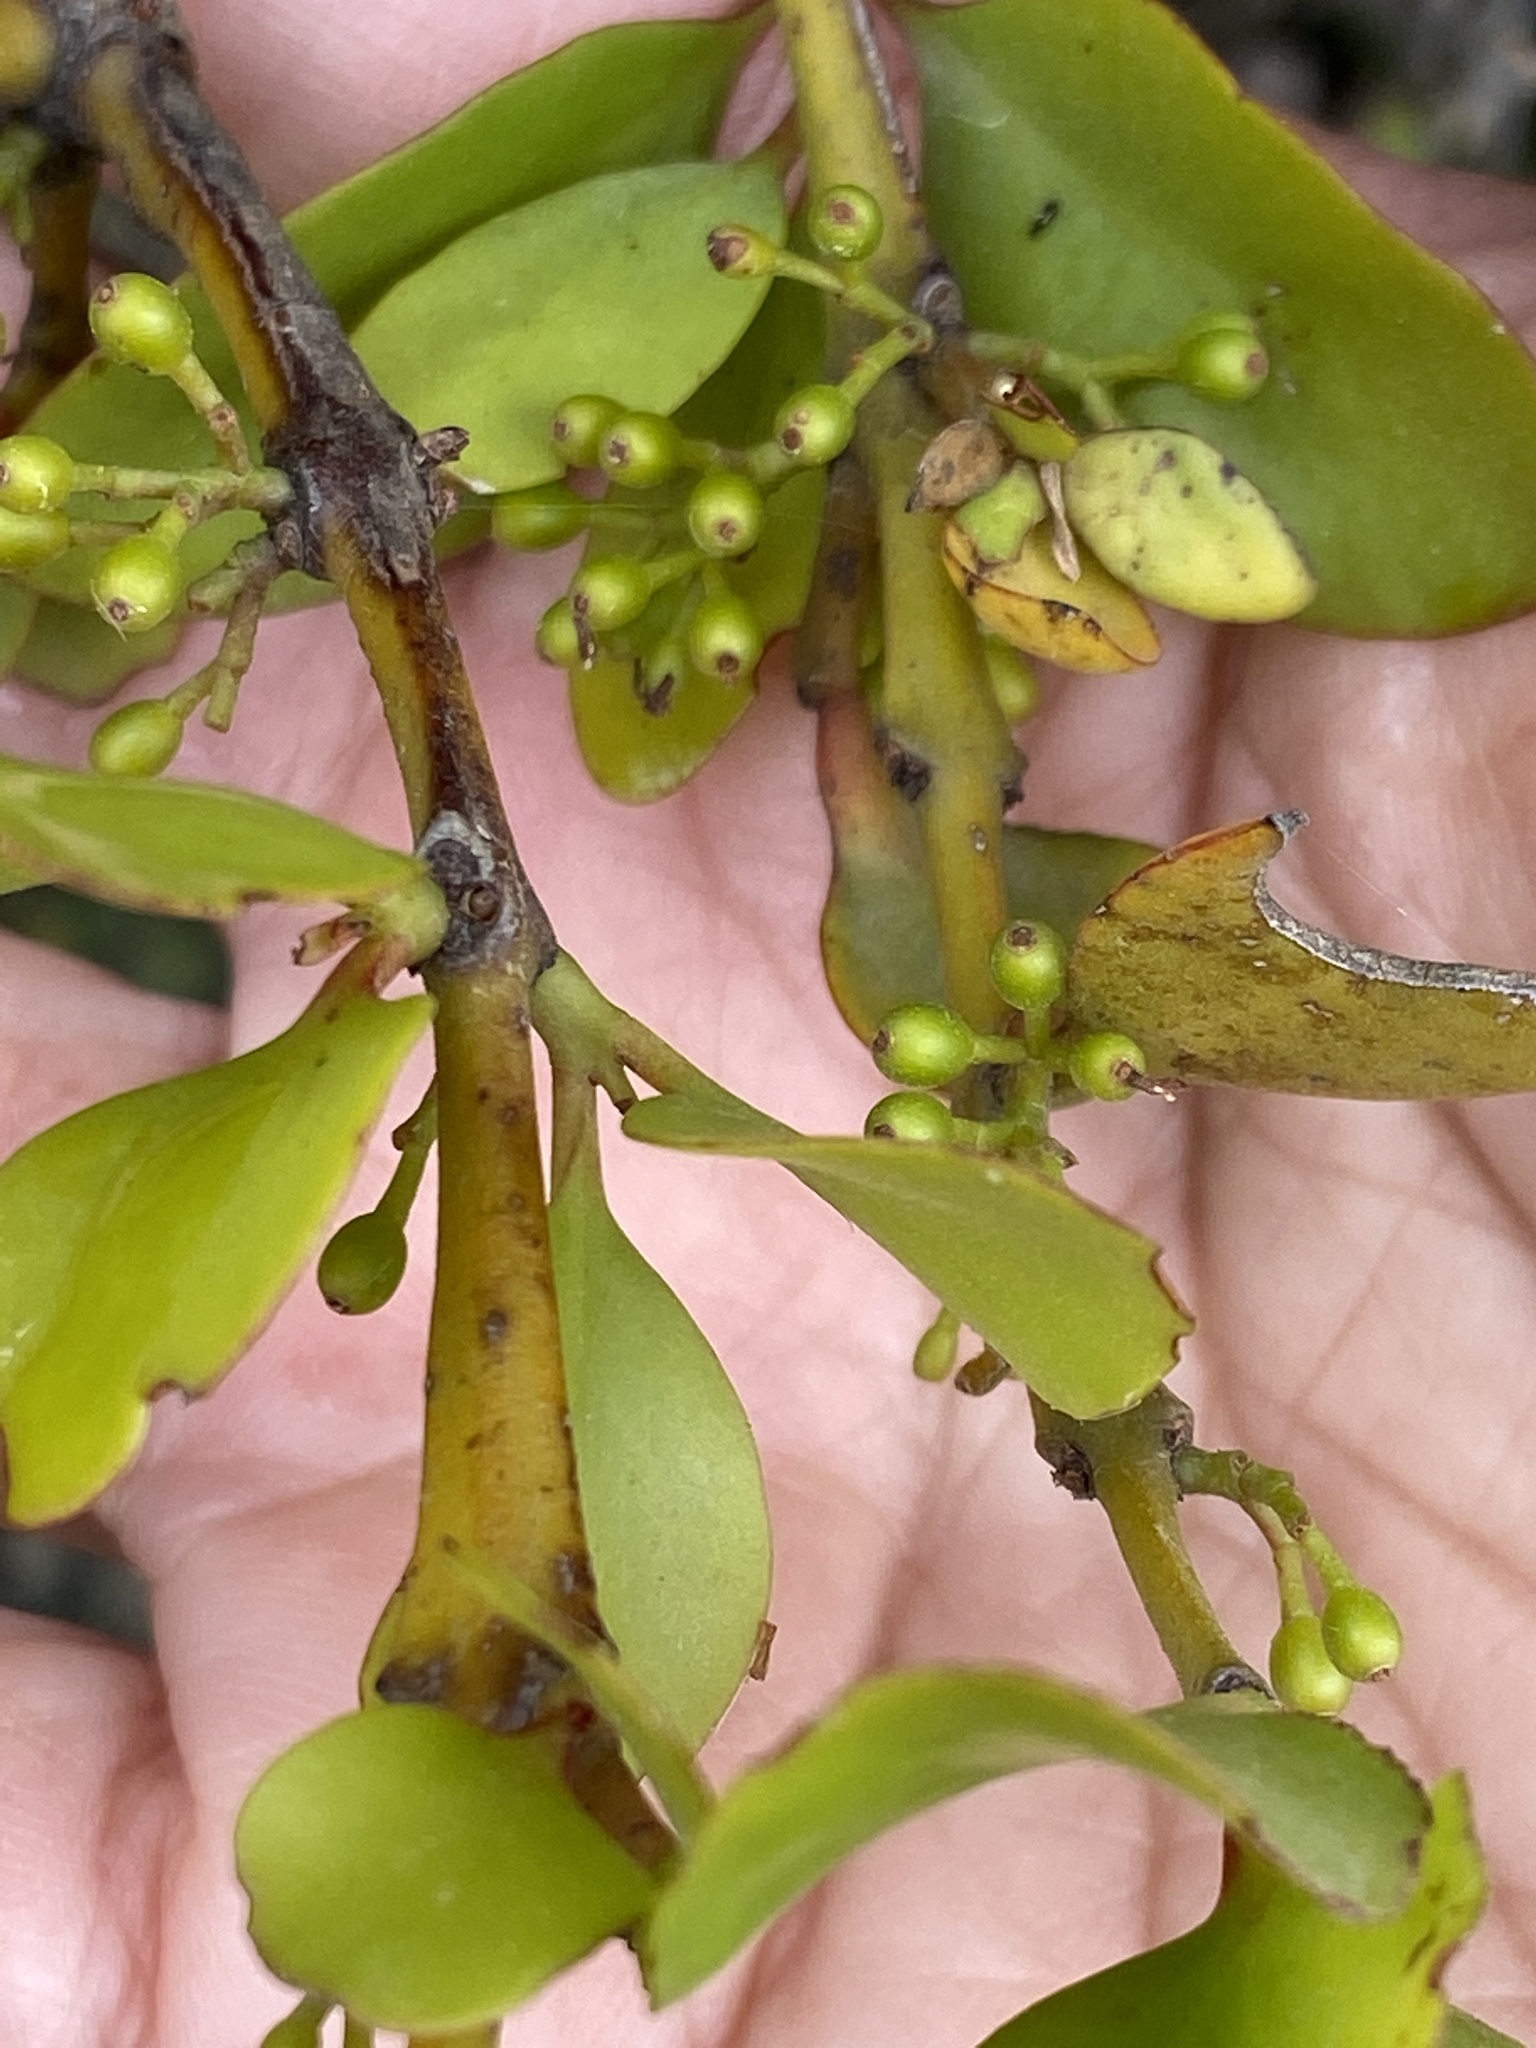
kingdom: Plantae
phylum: Tracheophyta
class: Magnoliopsida
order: Santalales
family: Loranthaceae
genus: Ileostylus
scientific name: Ileostylus micranthus
